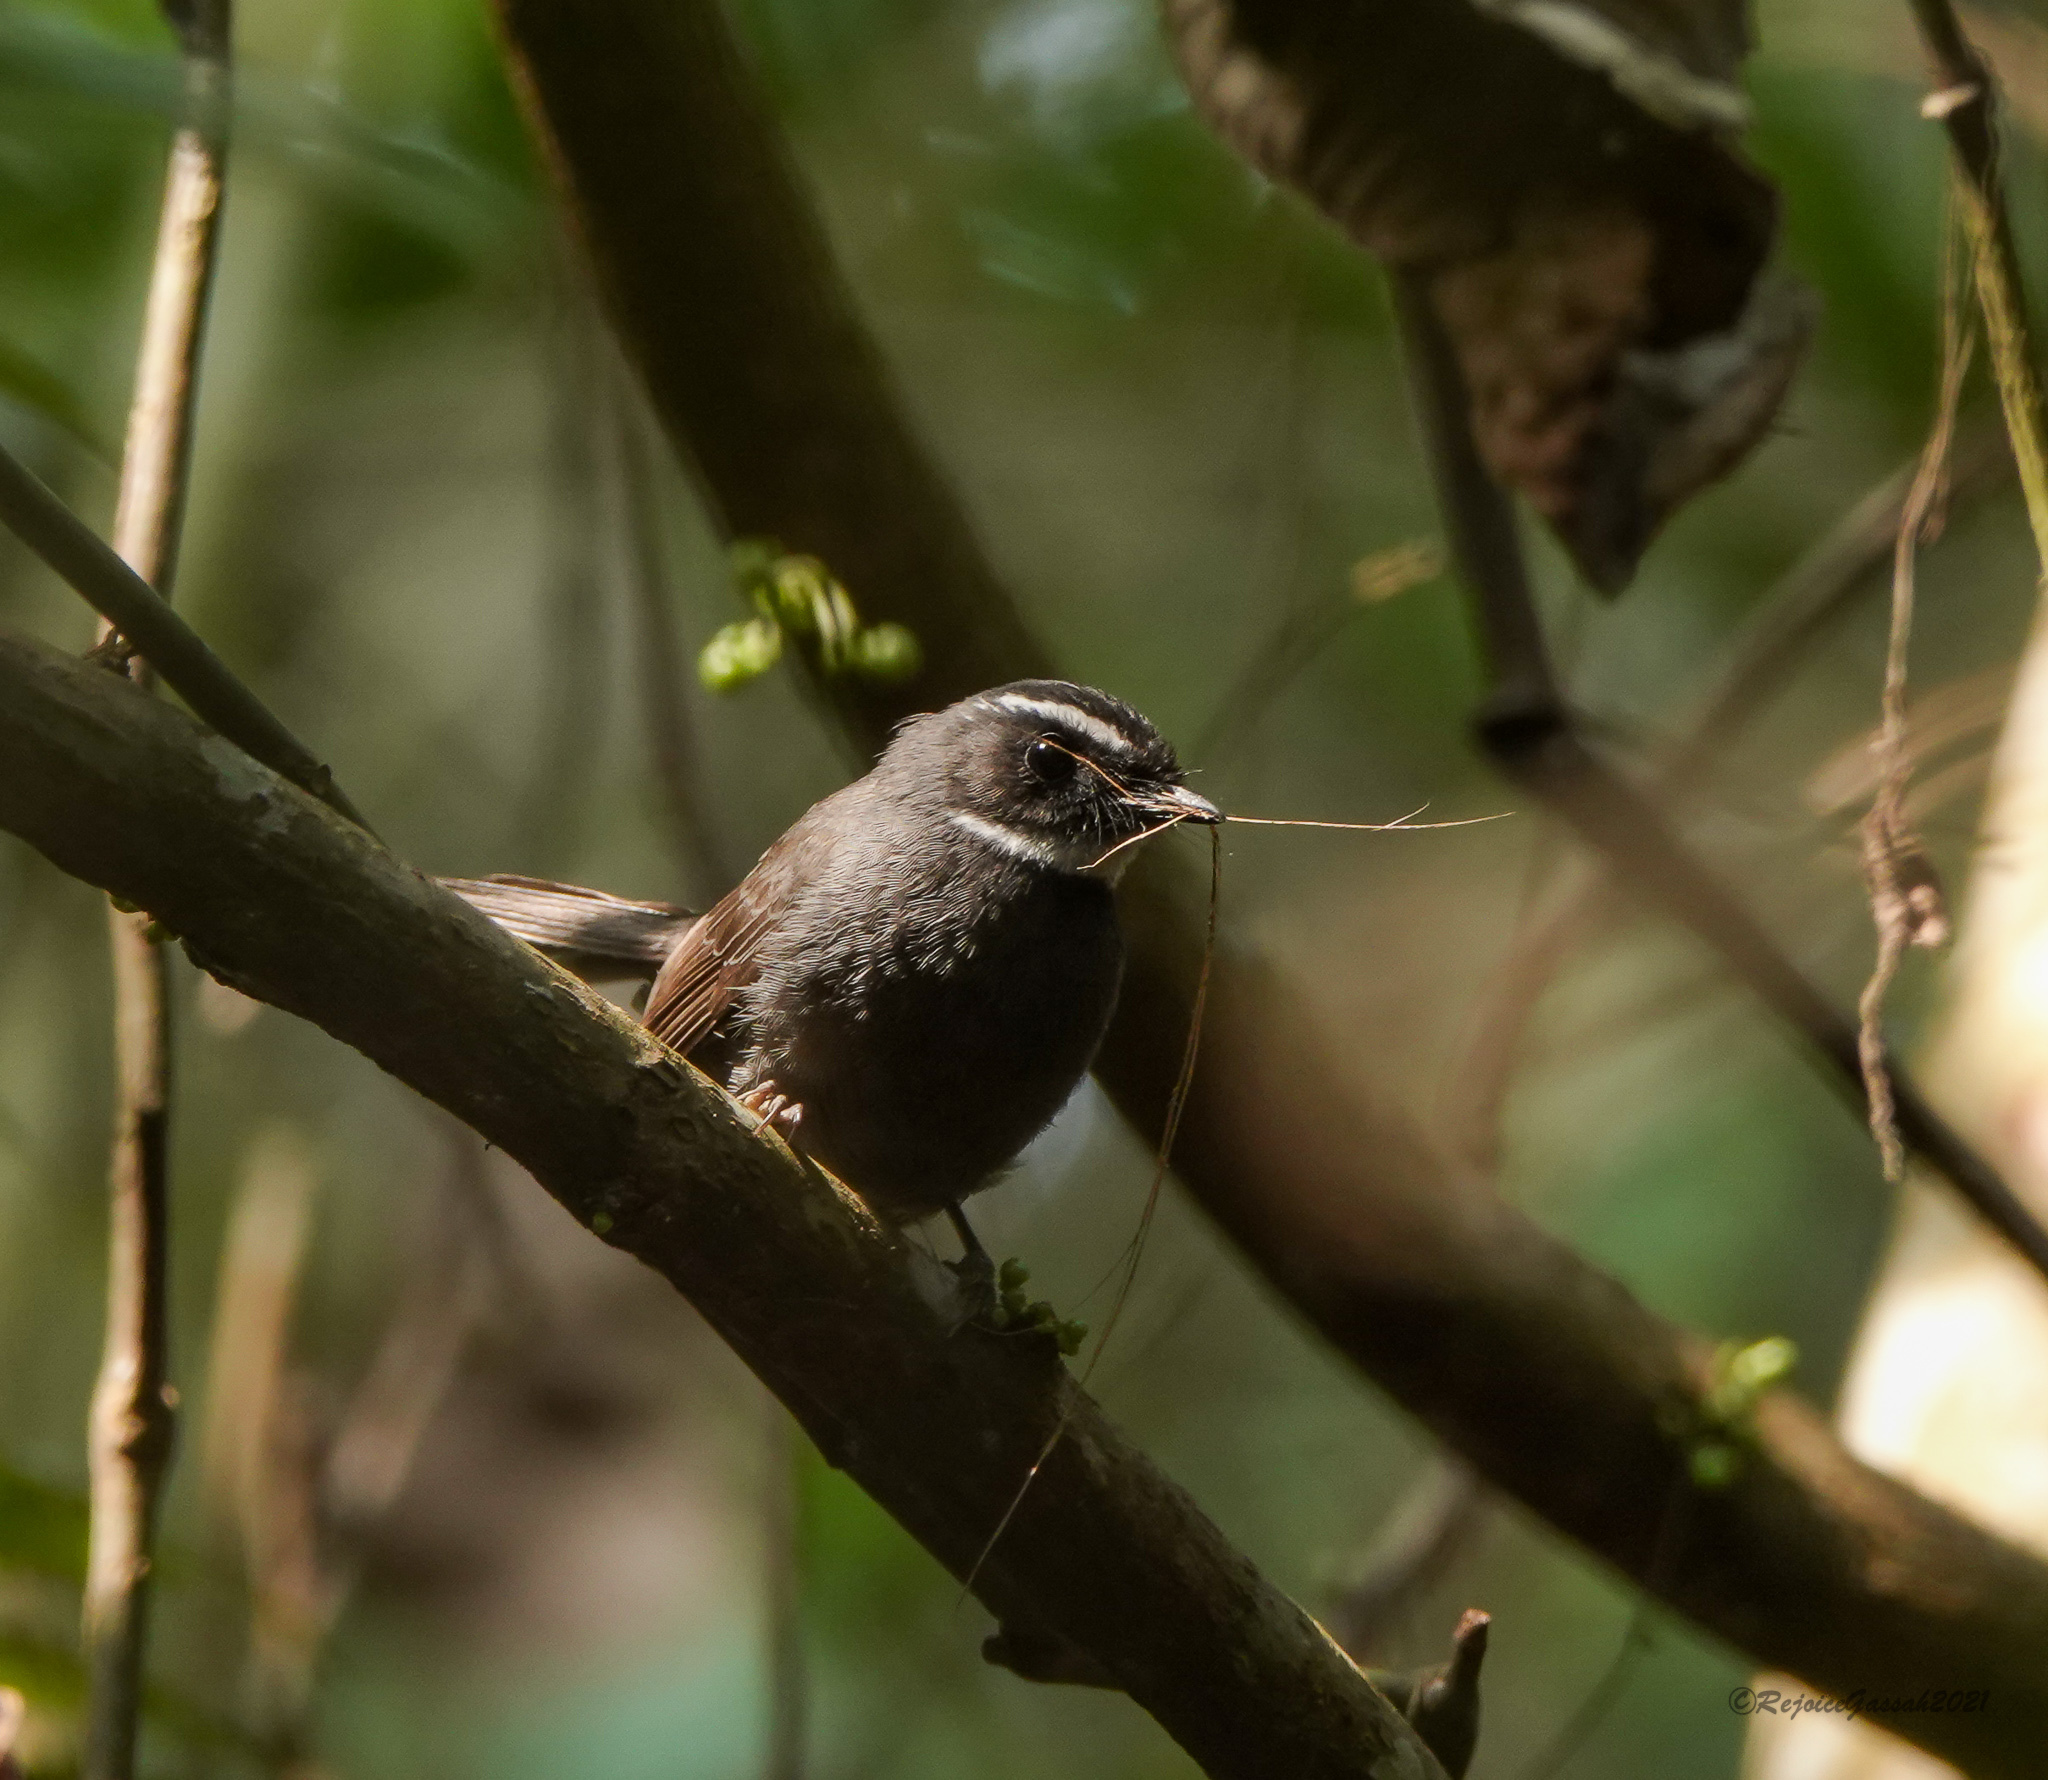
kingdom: Animalia
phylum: Chordata
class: Aves
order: Passeriformes
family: Rhipiduridae
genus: Rhipidura
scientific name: Rhipidura albicollis
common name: White-throated fantail
